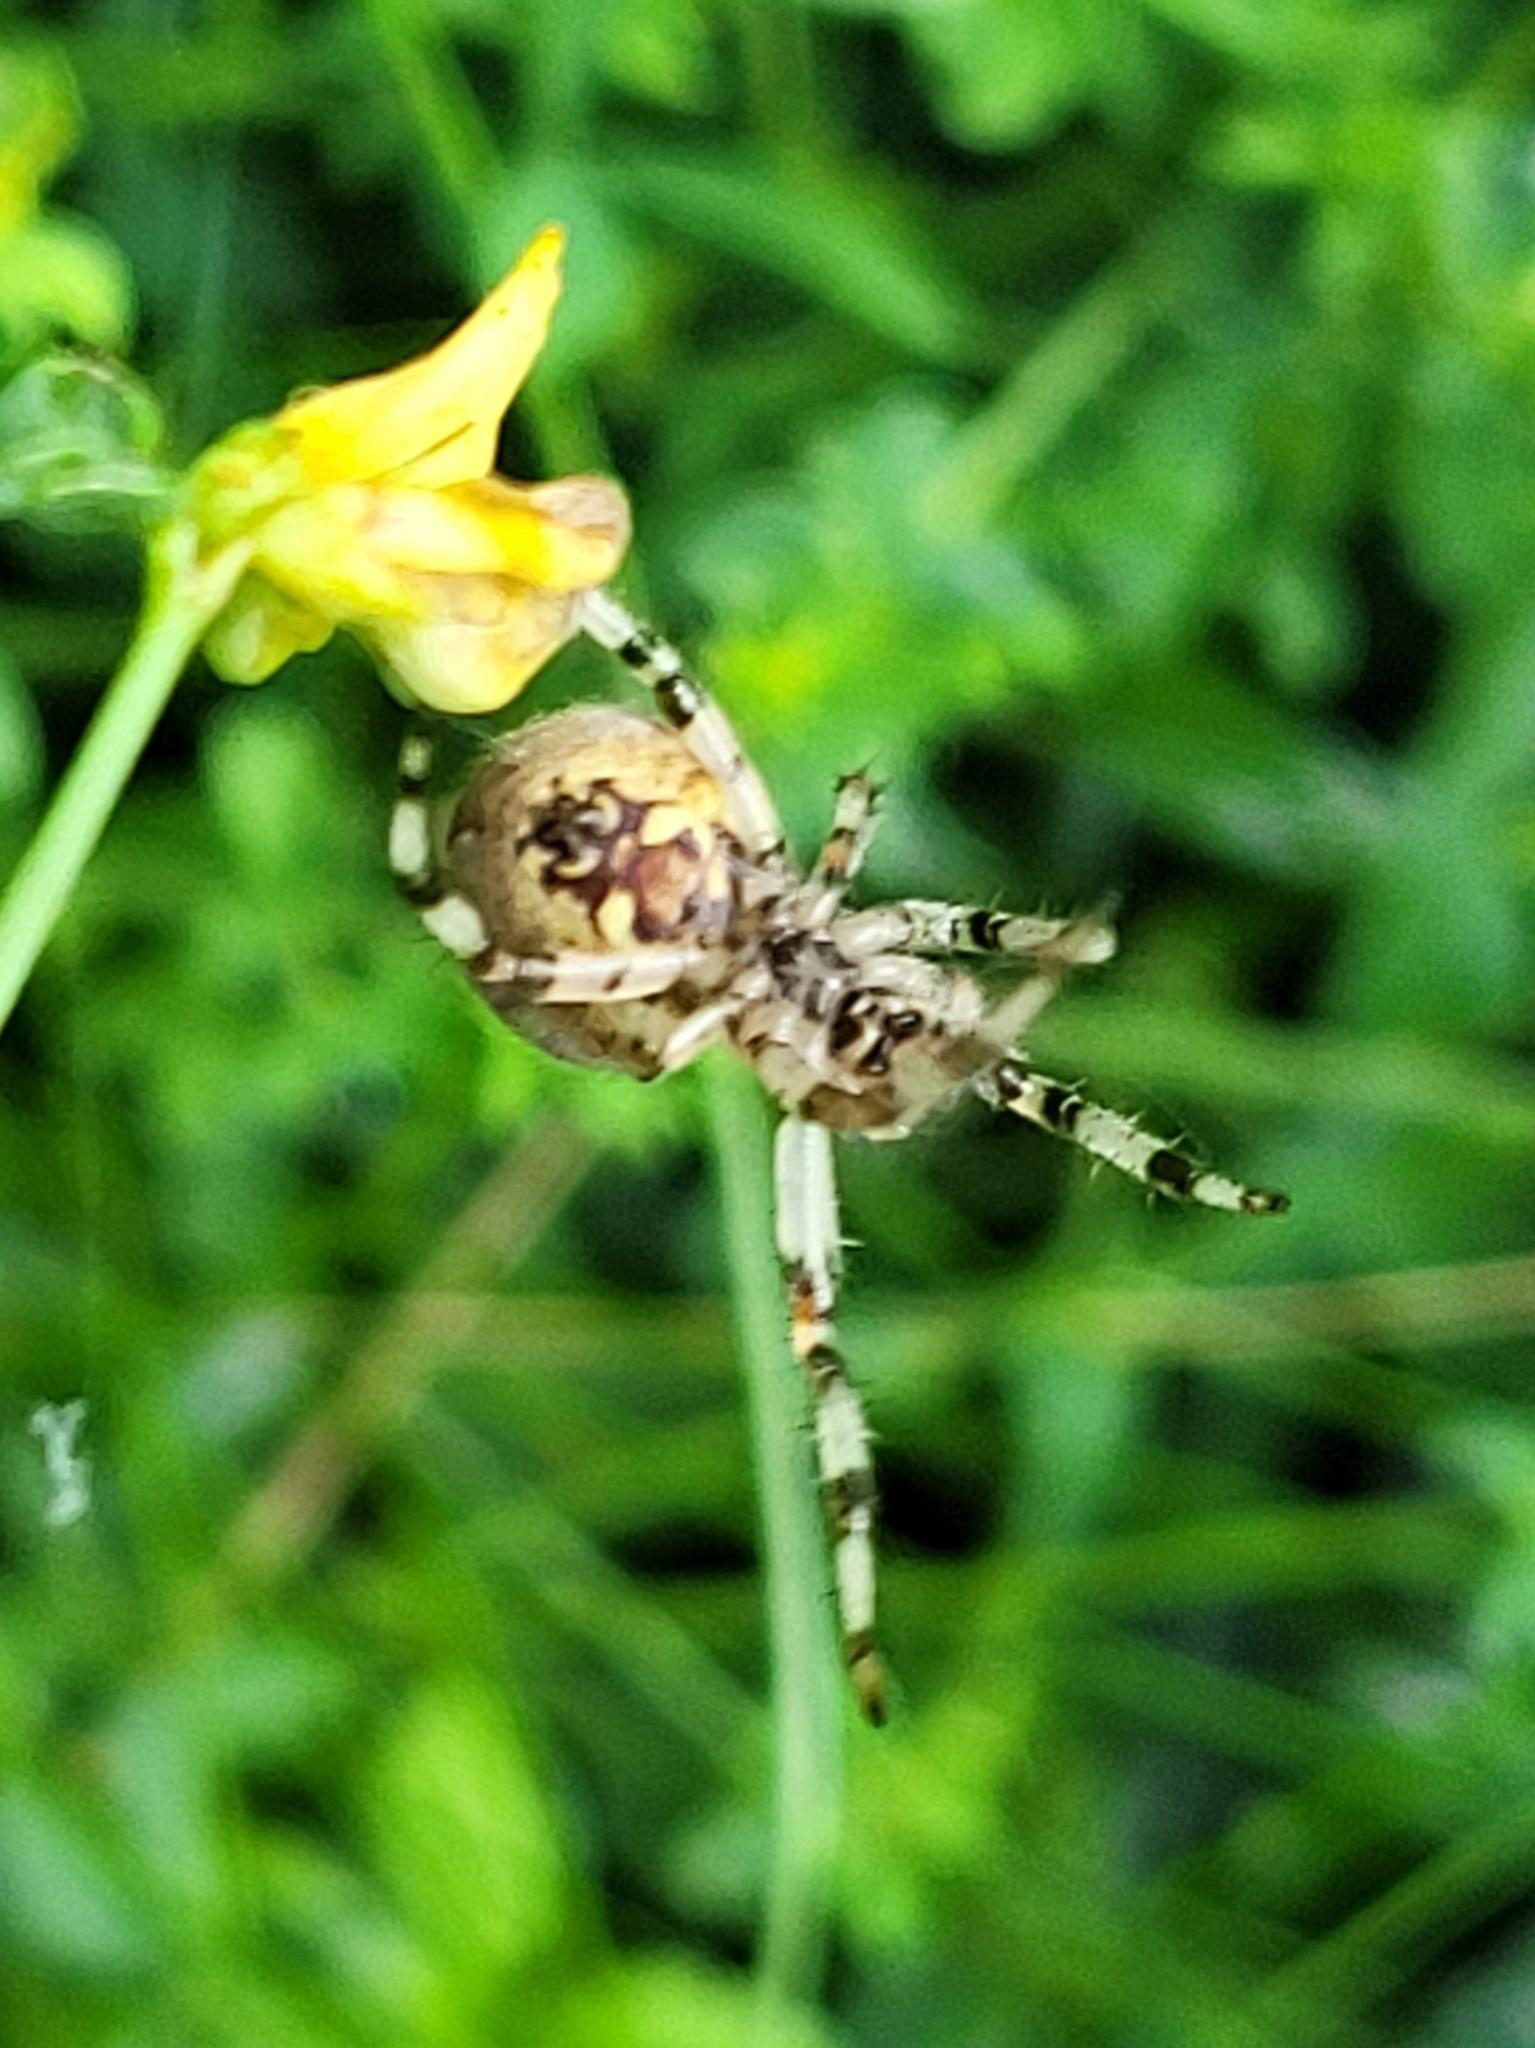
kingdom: Animalia
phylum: Arthropoda
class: Arachnida
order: Araneae
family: Araneidae
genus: Araneus
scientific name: Araneus quadratus
